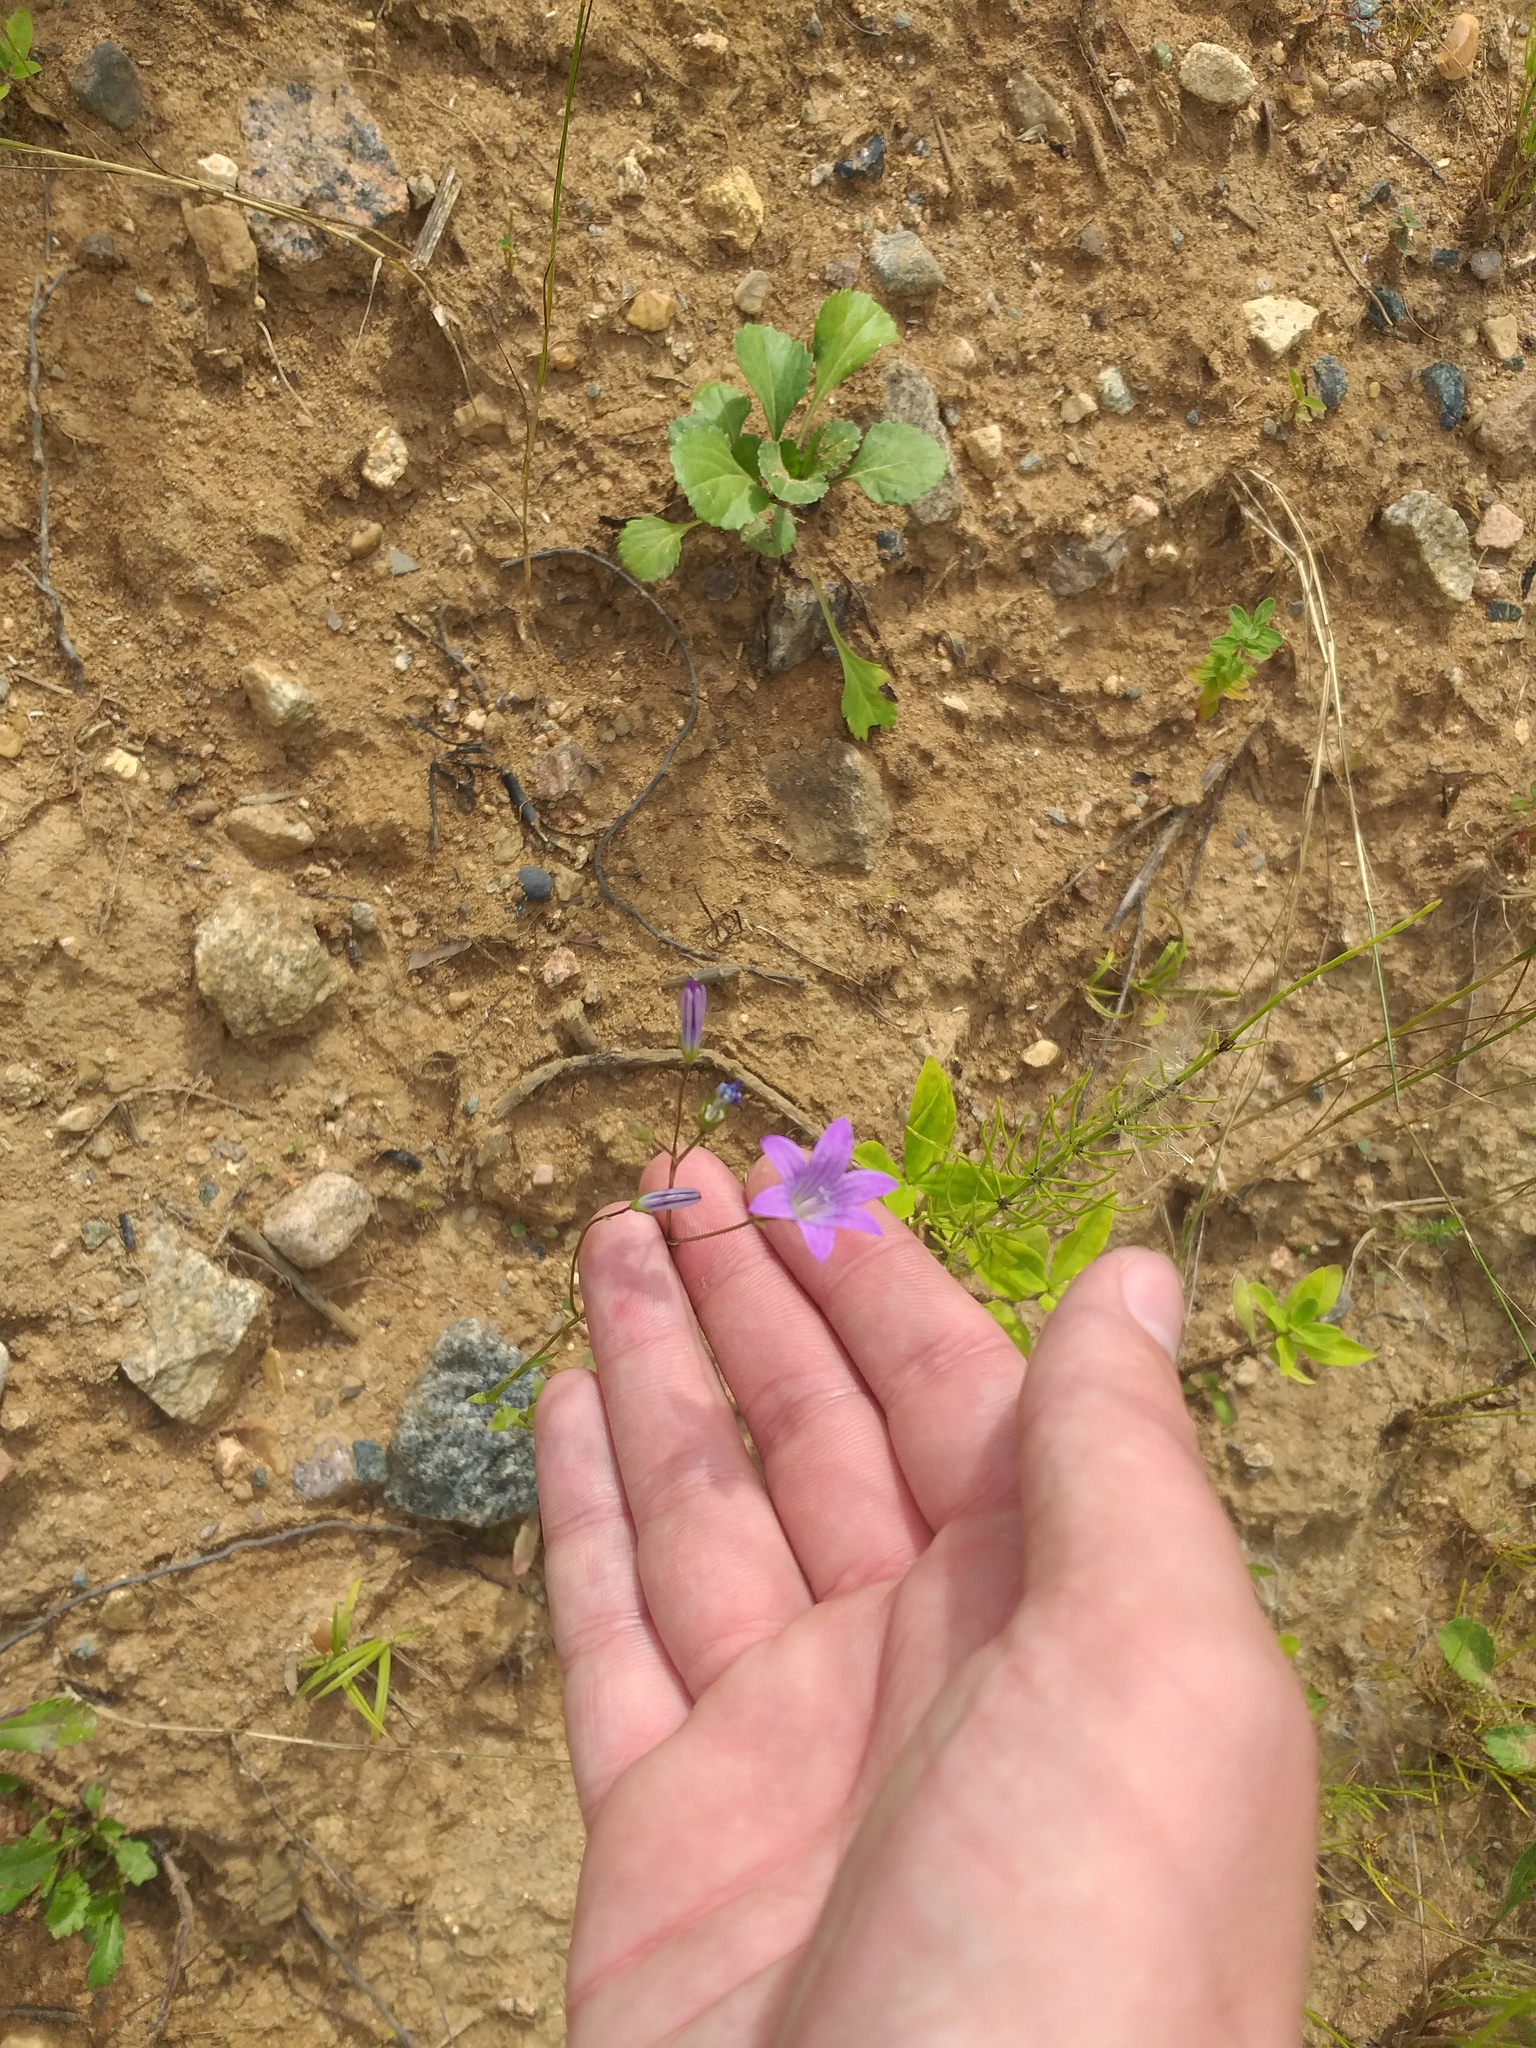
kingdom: Plantae
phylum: Tracheophyta
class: Magnoliopsida
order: Asterales
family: Campanulaceae
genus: Campanula
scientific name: Campanula patula
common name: Spreading bellflower
